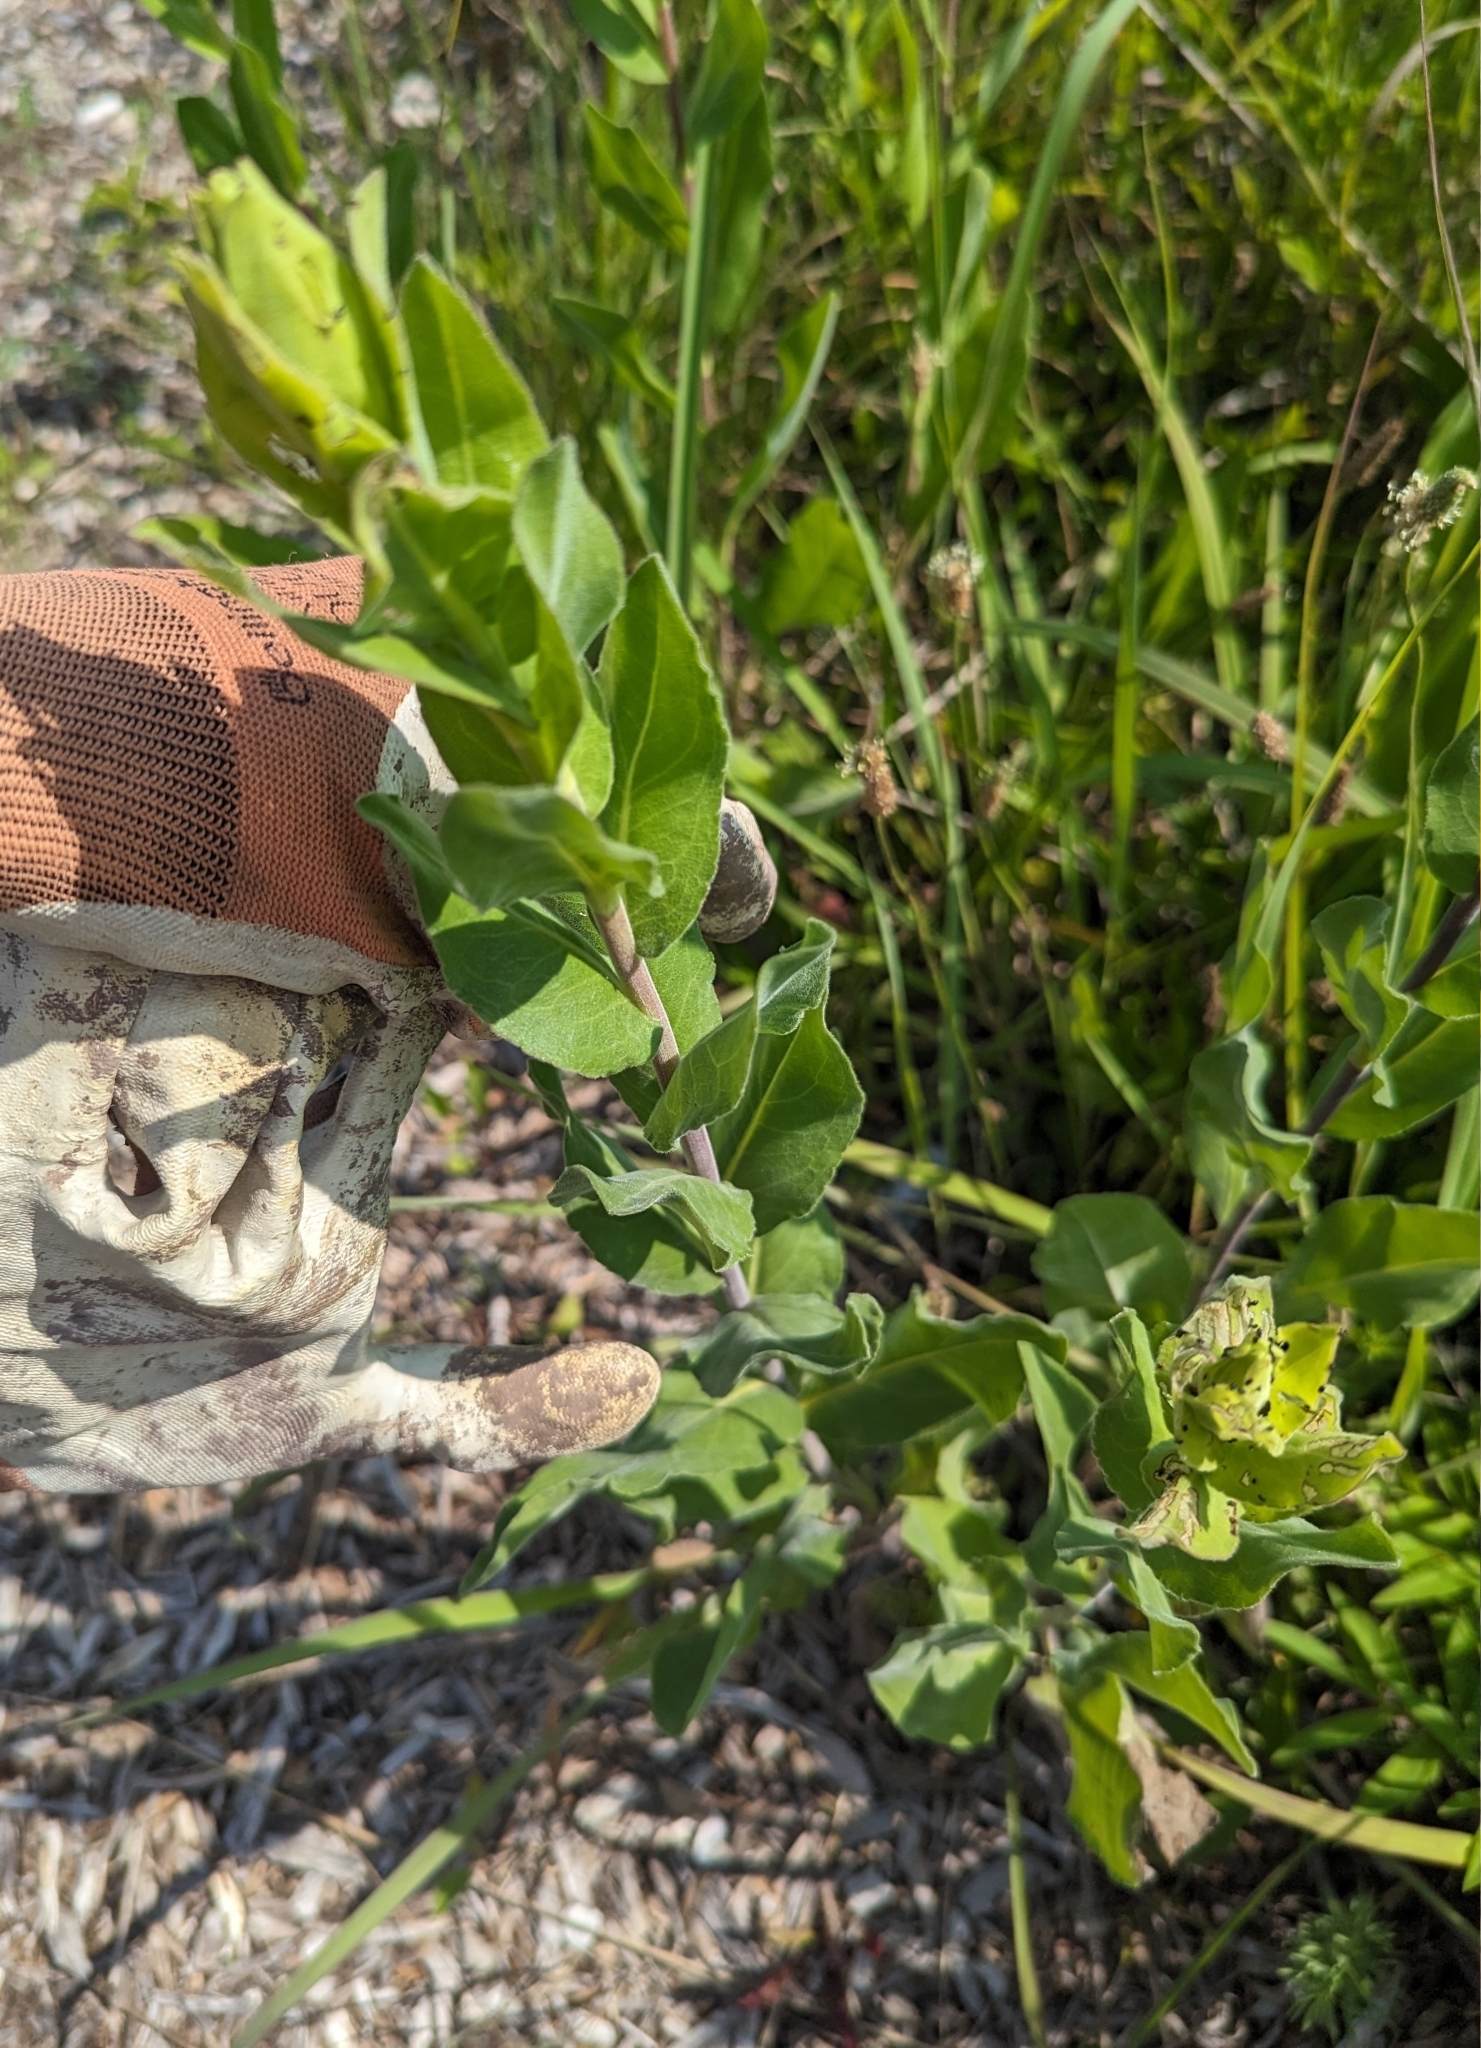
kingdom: Plantae
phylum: Tracheophyta
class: Magnoliopsida
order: Asterales
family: Asteraceae
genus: Solidago
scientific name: Solidago rigida
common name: Rigid goldenrod
